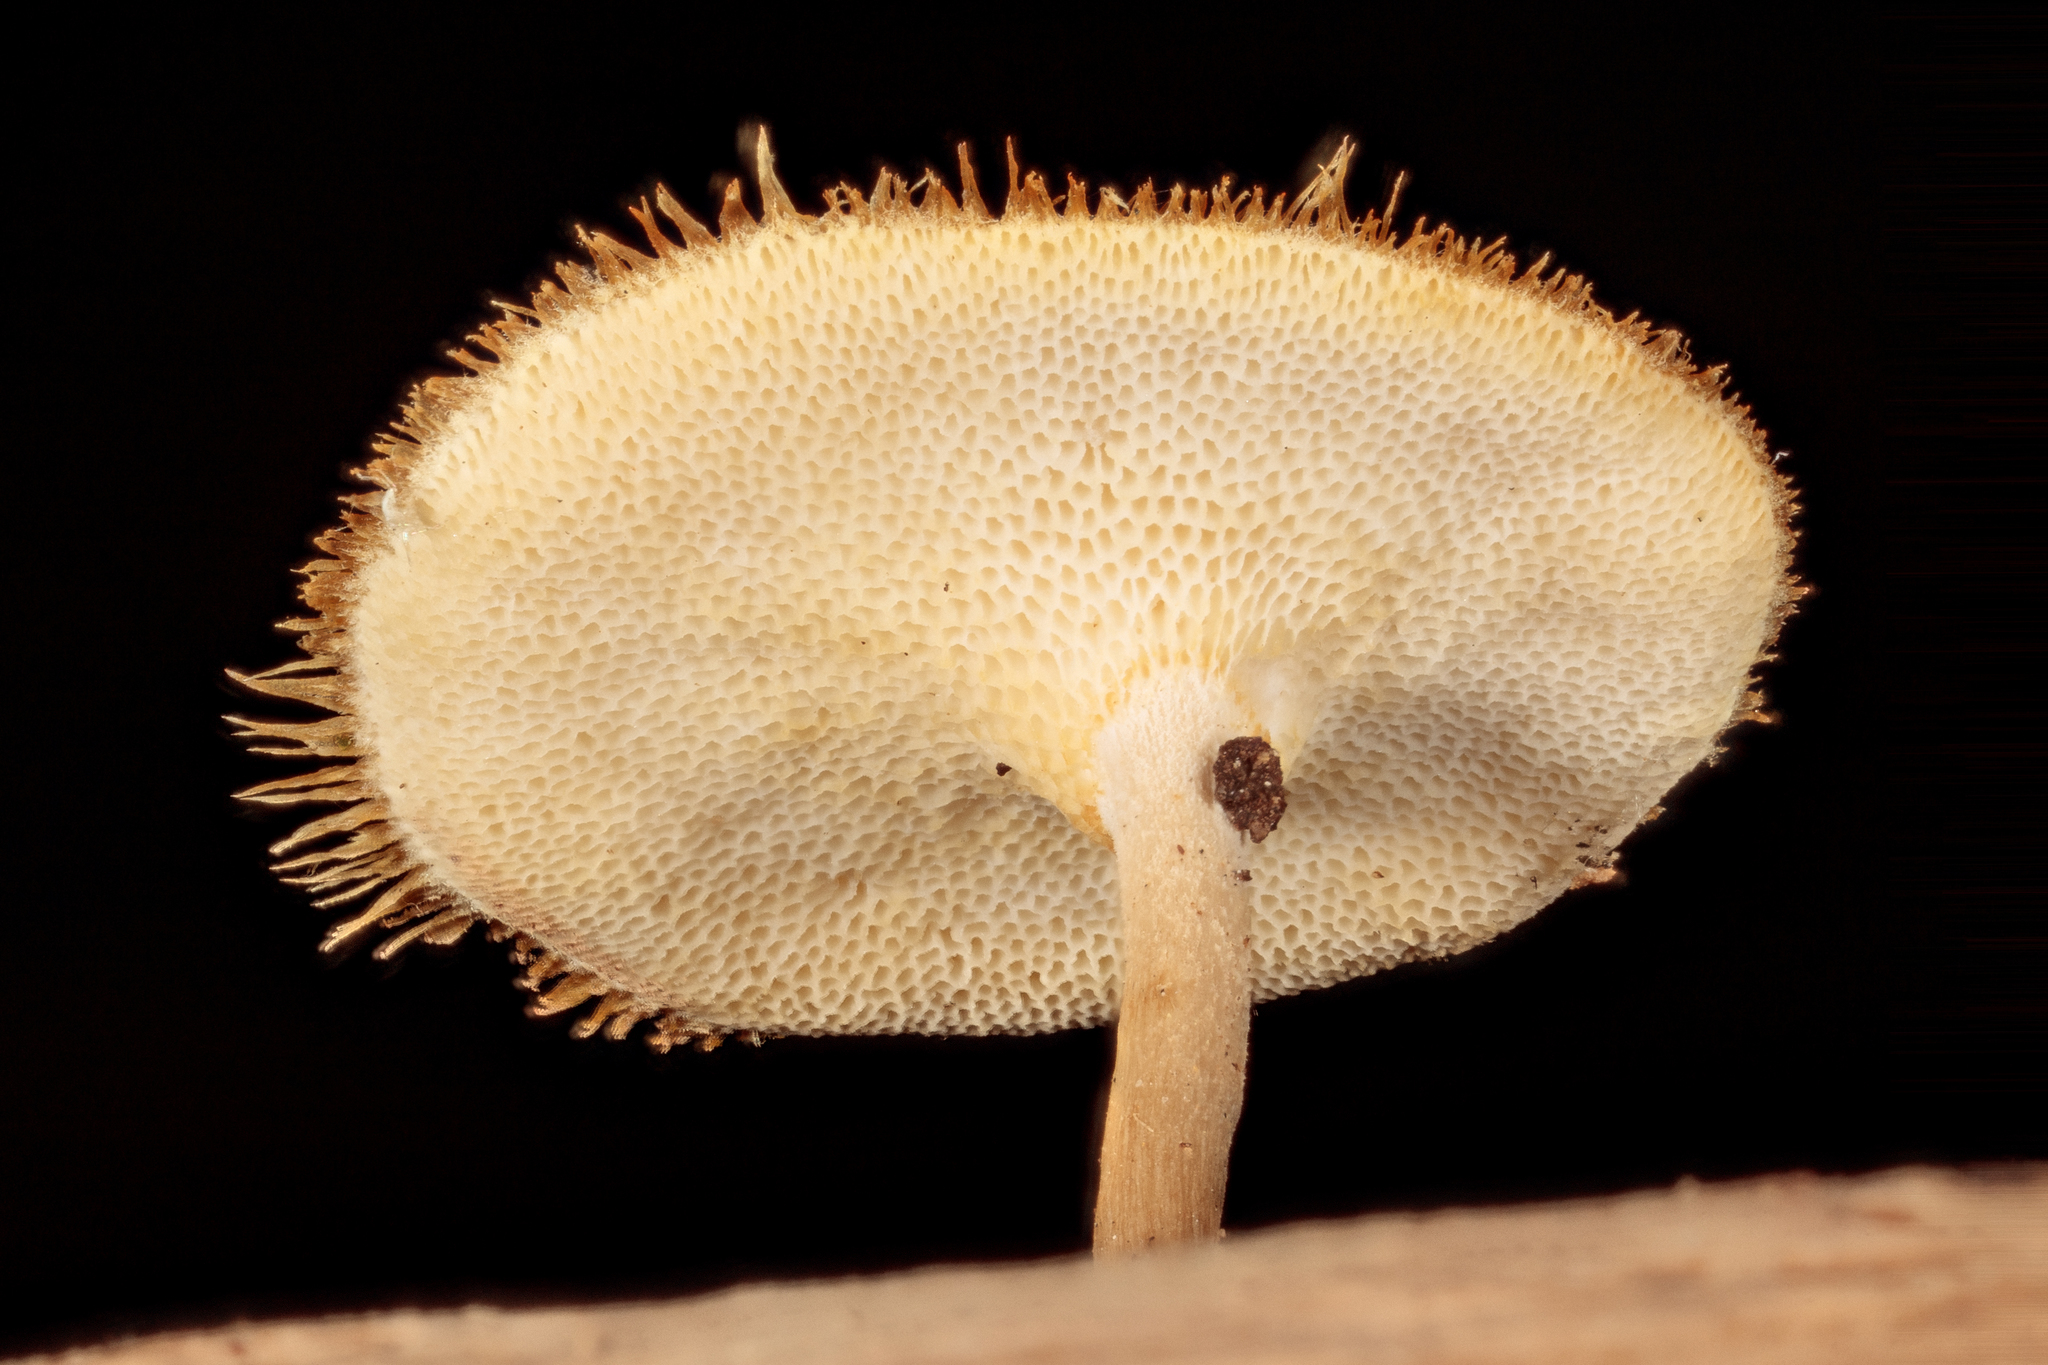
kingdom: Fungi
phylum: Basidiomycota
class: Agaricomycetes
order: Polyporales
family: Polyporaceae
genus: Lentinus
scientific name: Lentinus flexipes
